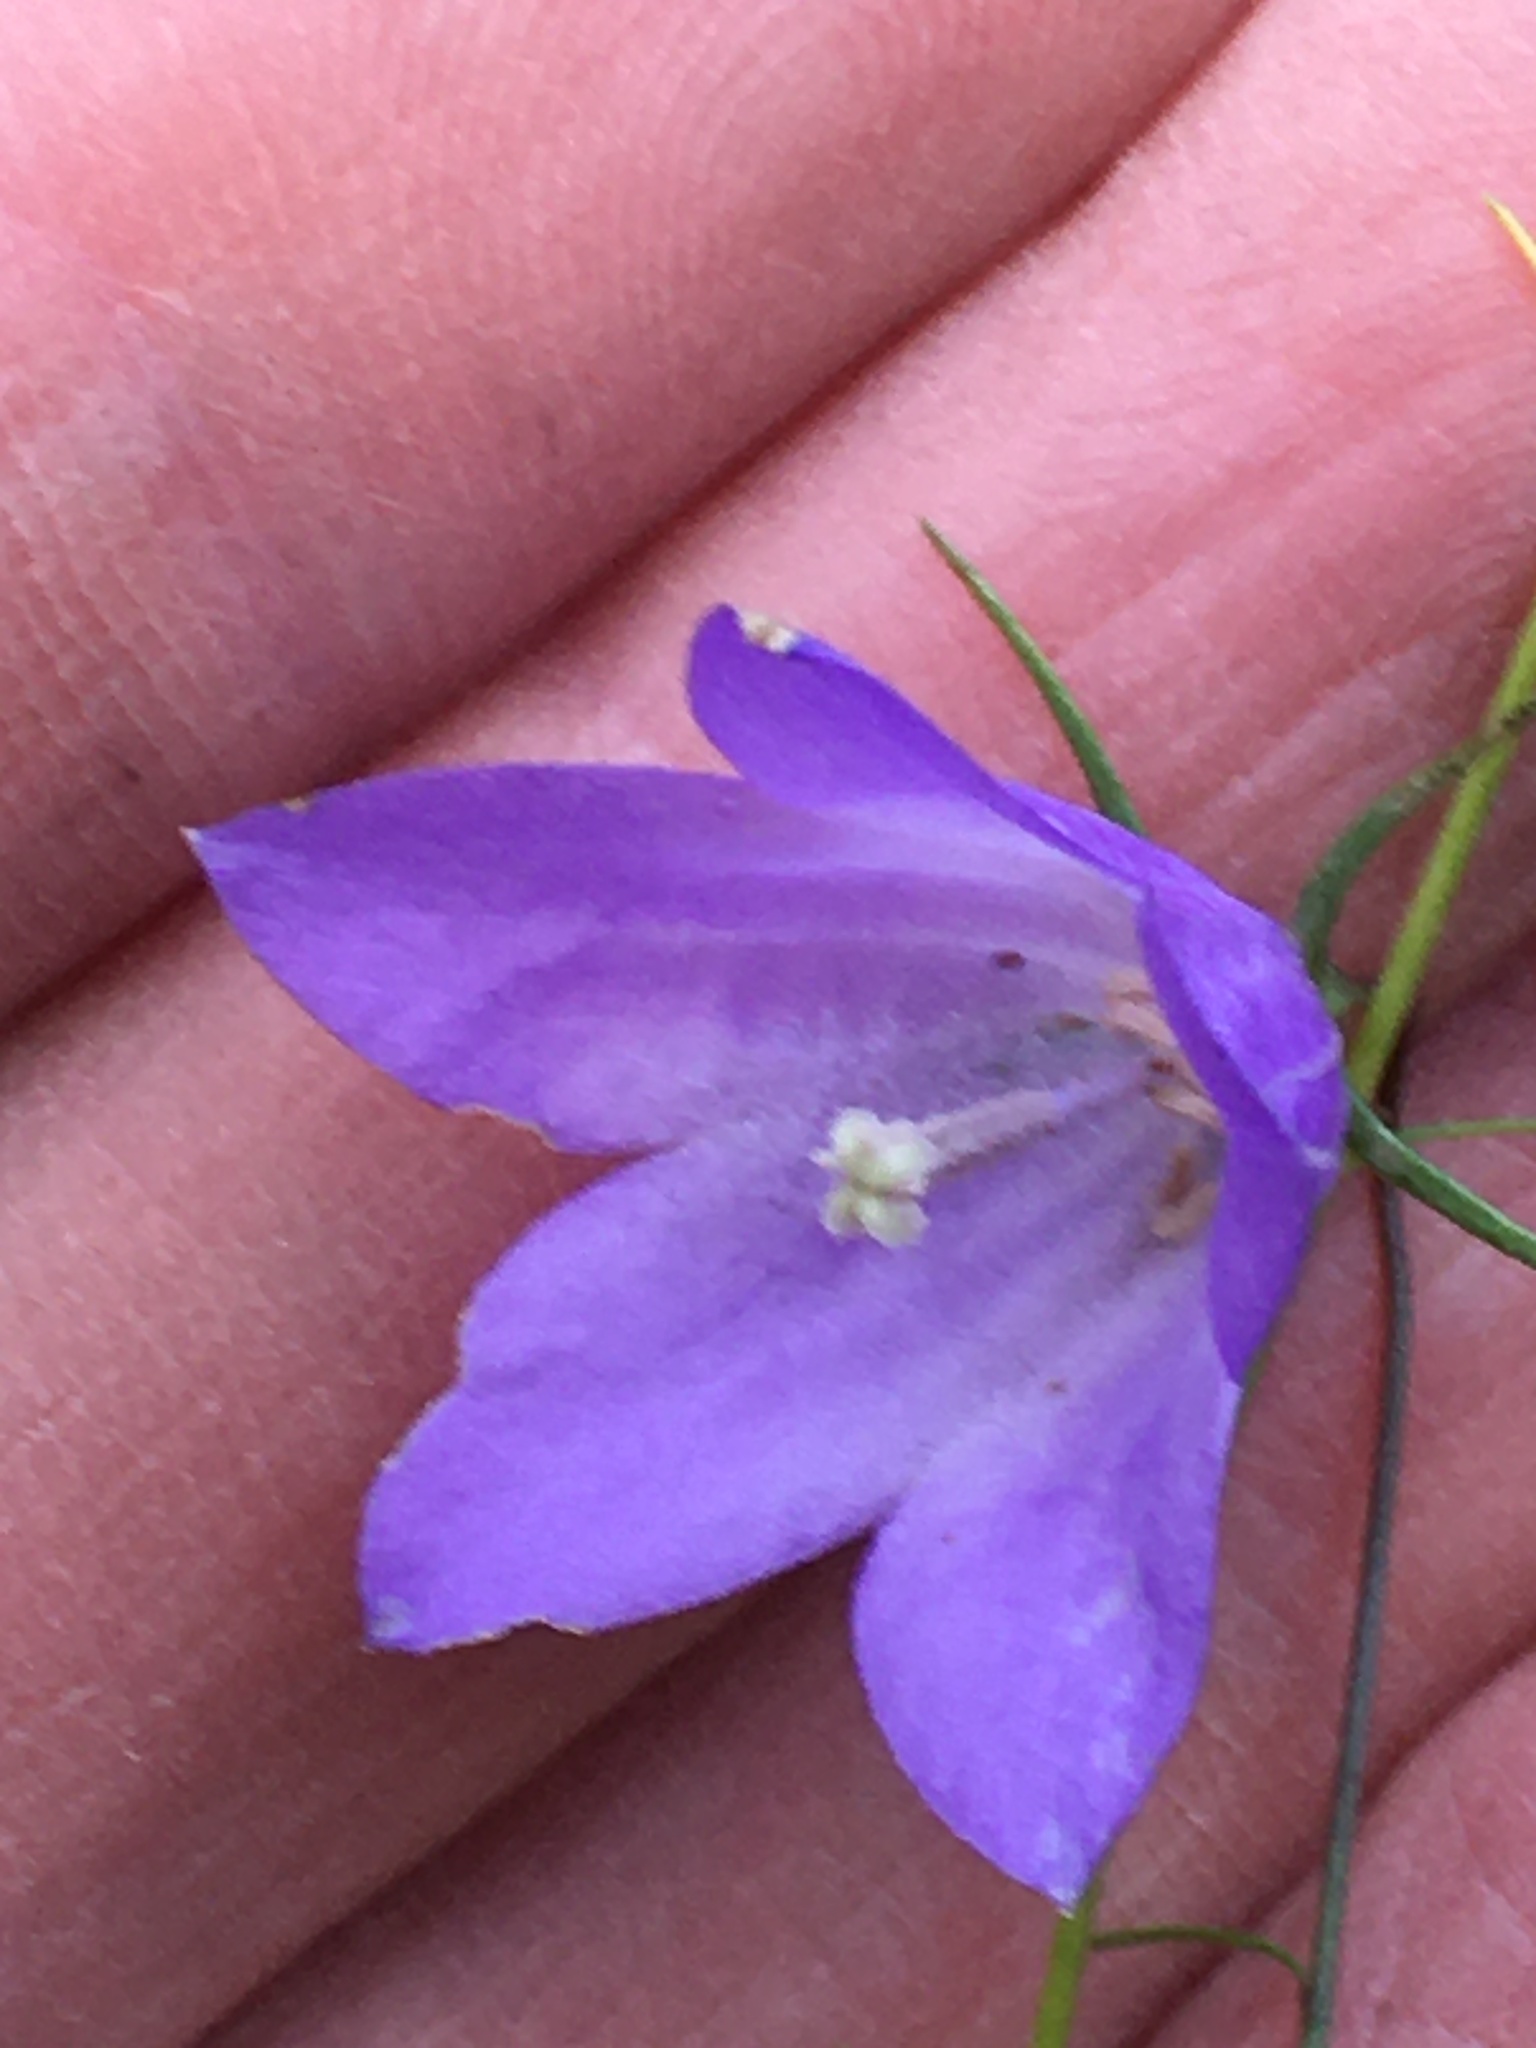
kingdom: Plantae
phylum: Tracheophyta
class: Magnoliopsida
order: Asterales
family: Campanulaceae
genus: Campanula
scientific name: Campanula alaskana
